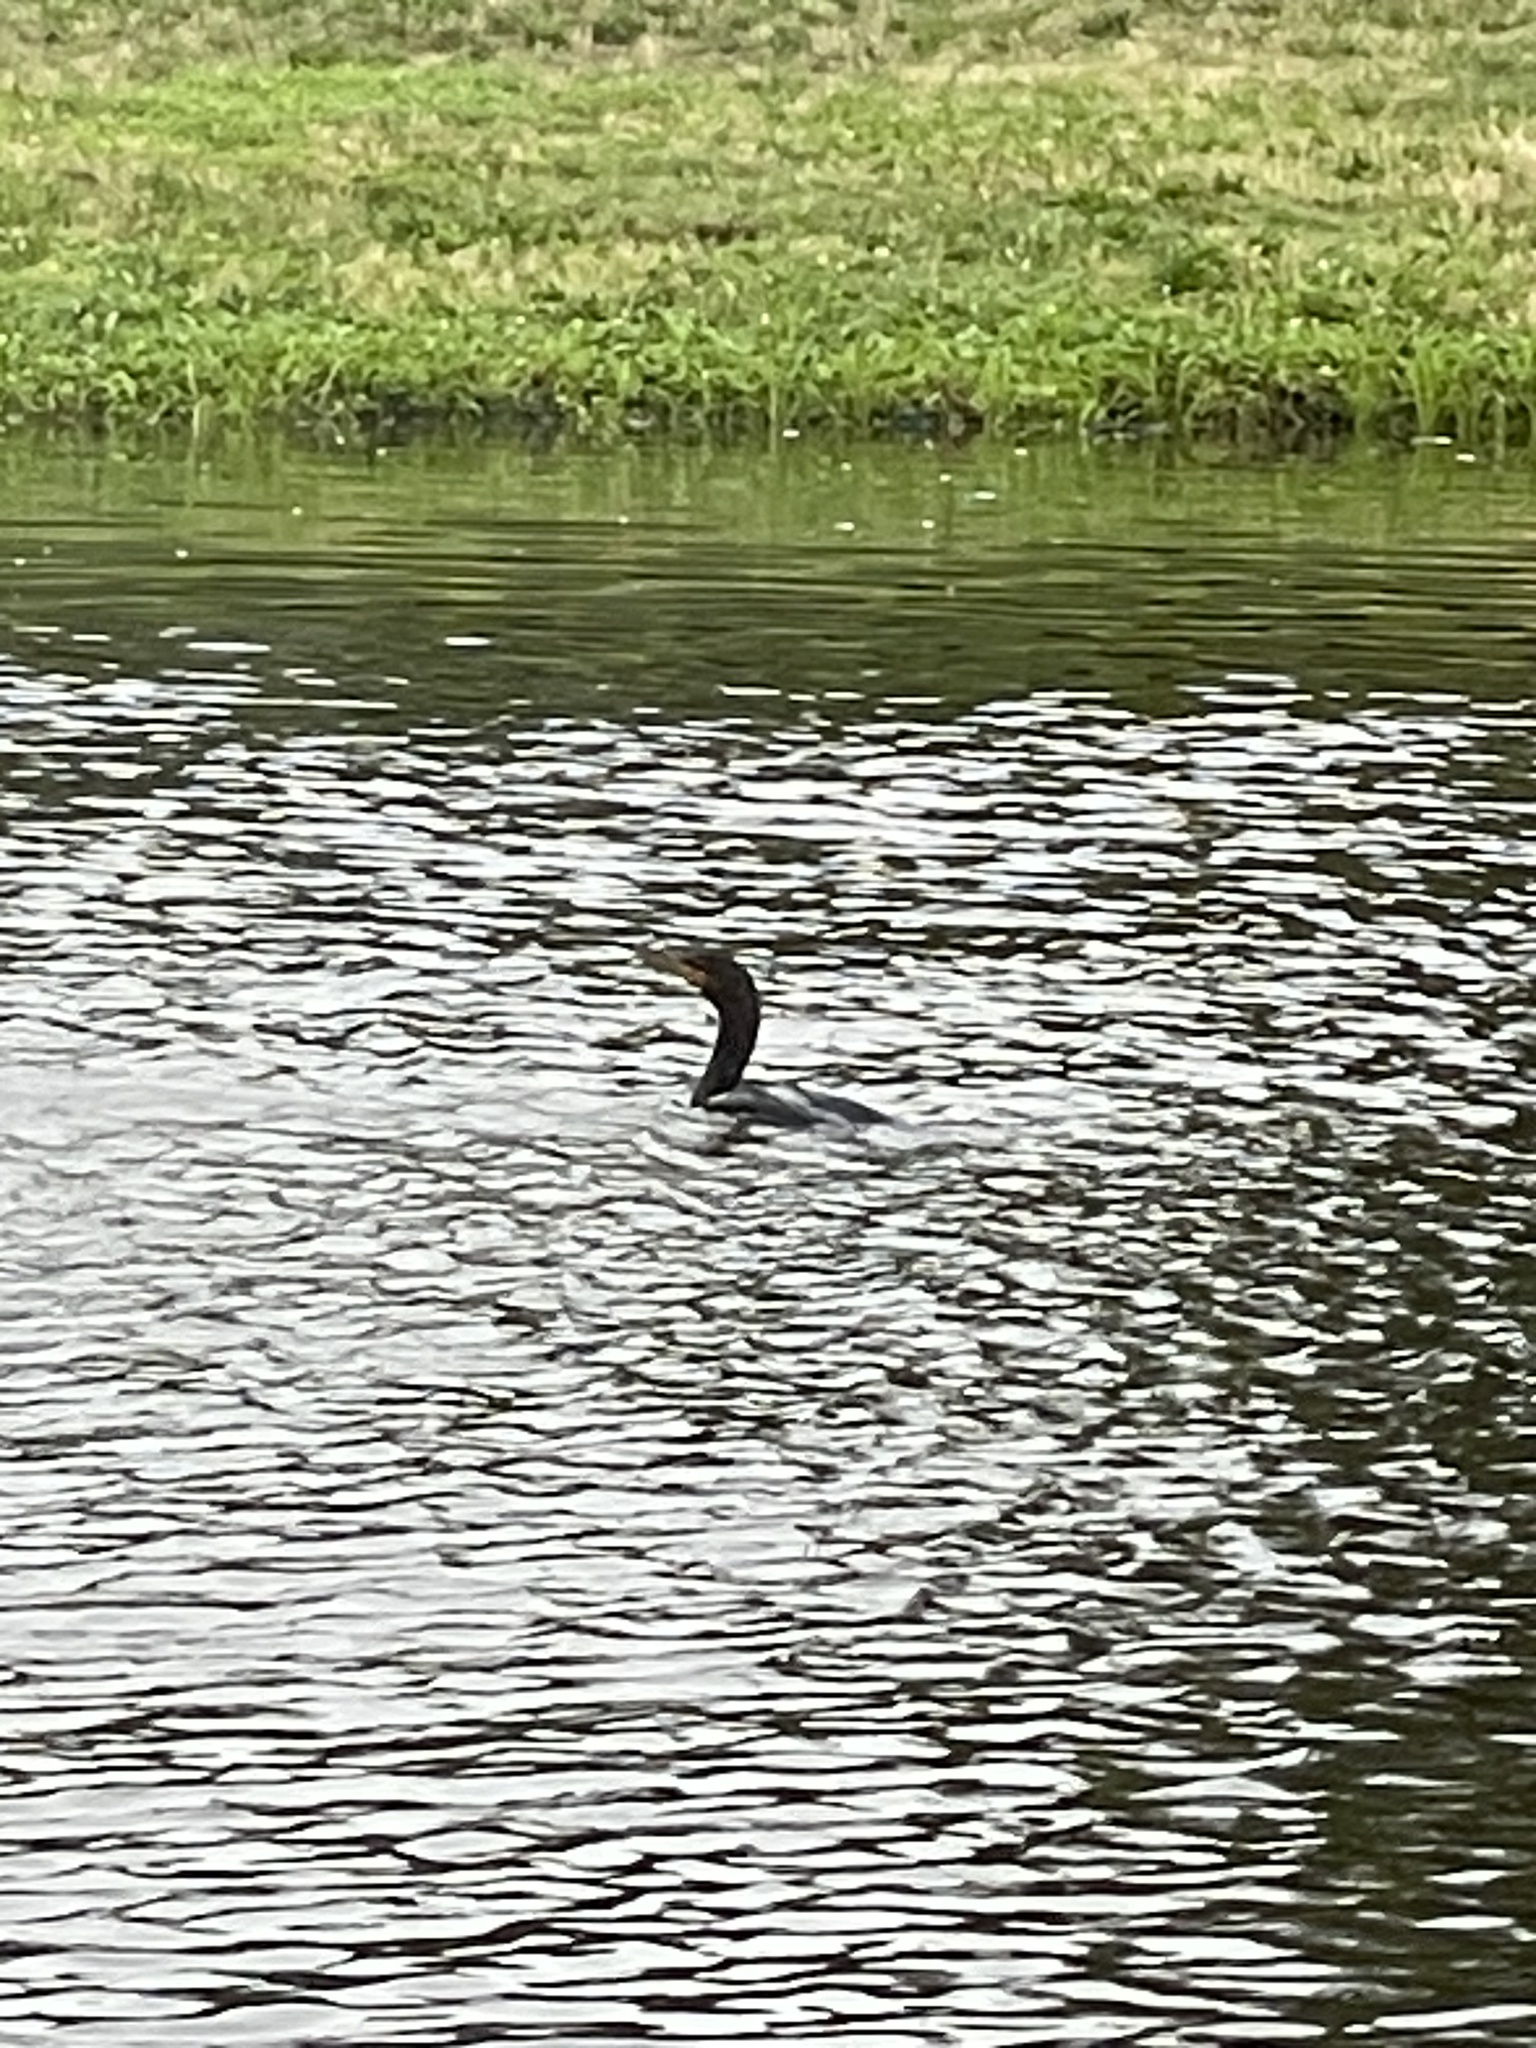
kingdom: Animalia
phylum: Chordata
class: Aves
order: Suliformes
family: Phalacrocoracidae
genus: Phalacrocorax
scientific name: Phalacrocorax auritus
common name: Double-crested cormorant
